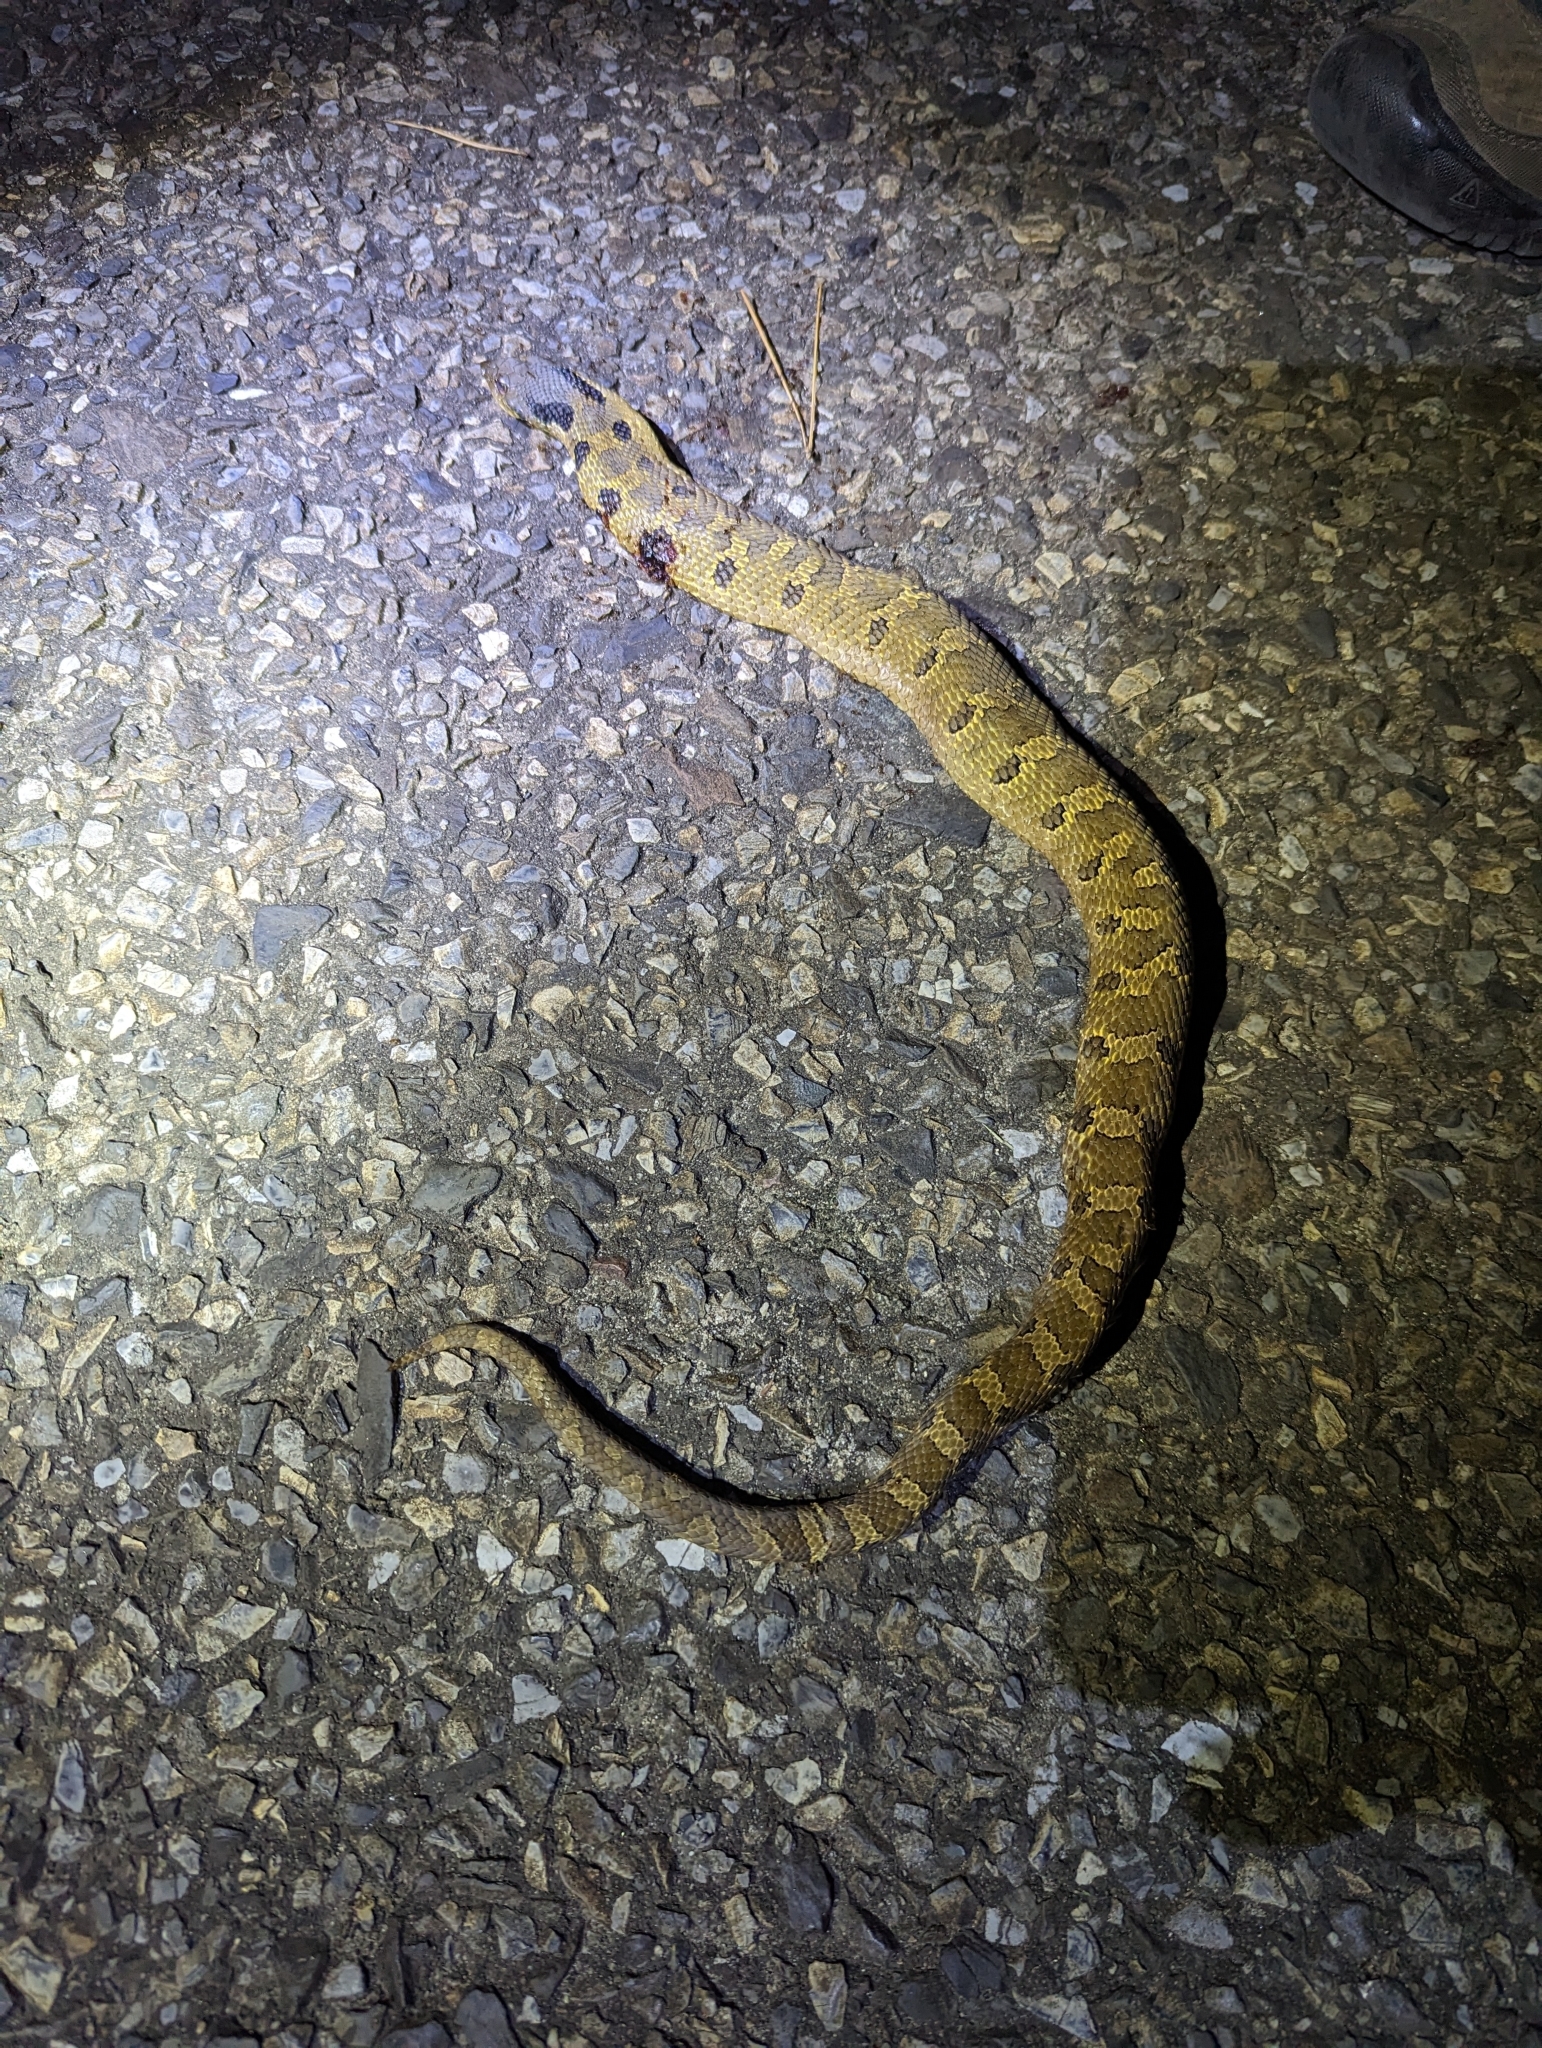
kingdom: Animalia
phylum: Chordata
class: Squamata
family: Colubridae
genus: Heterodon
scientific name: Heterodon platirhinos
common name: Eastern hognose snake
